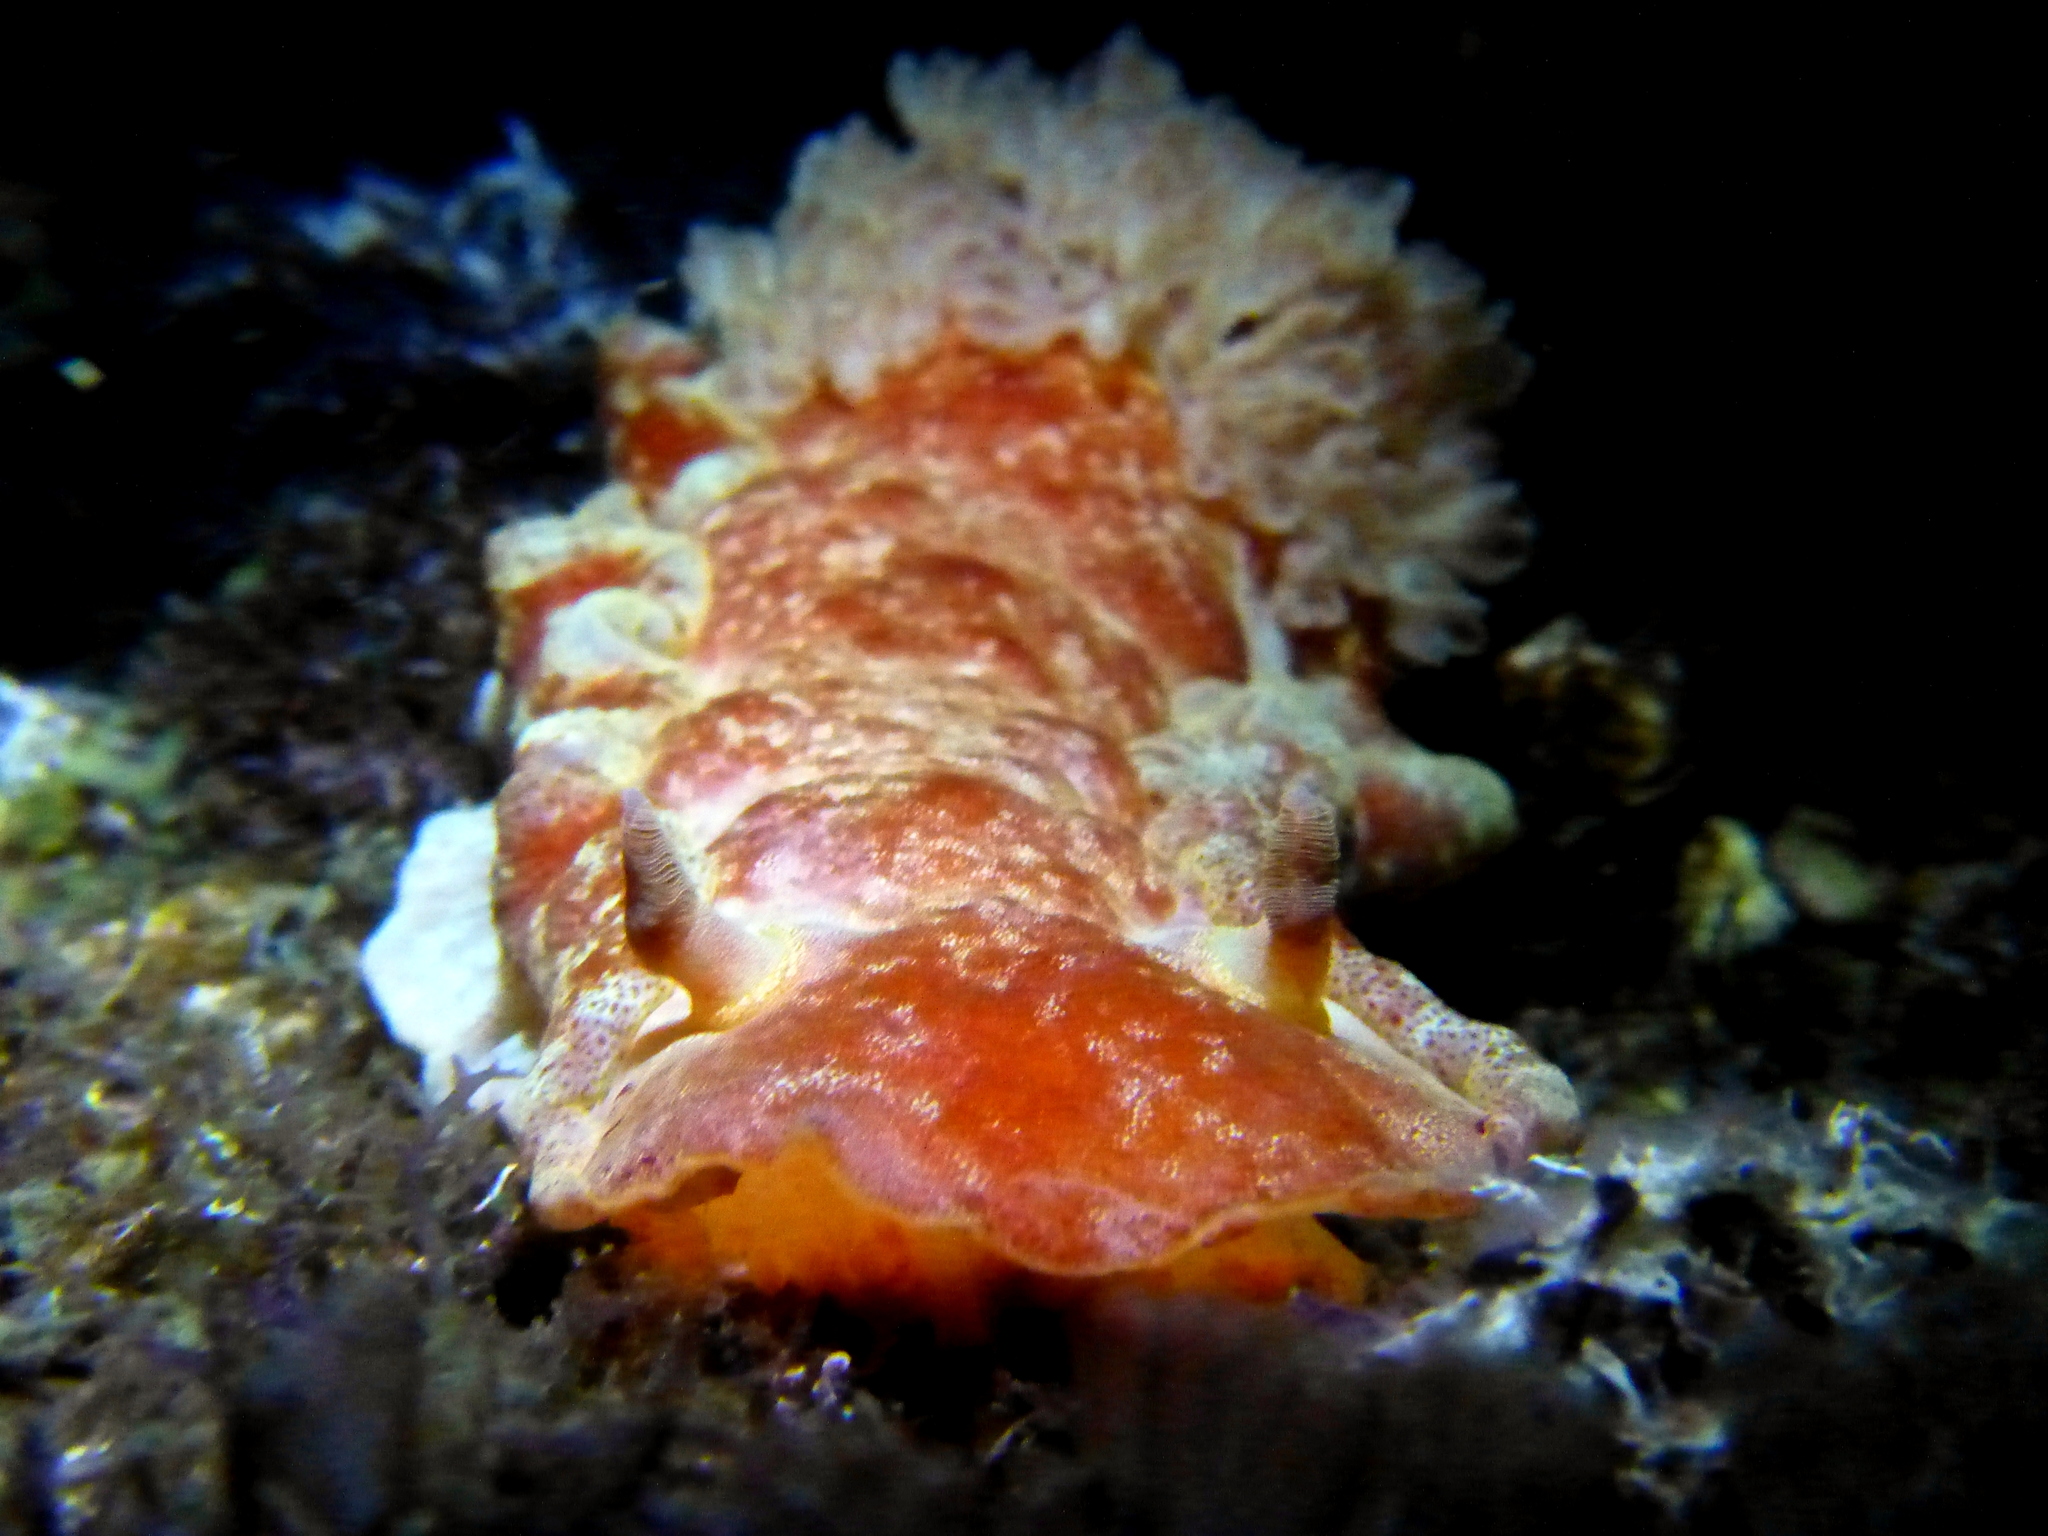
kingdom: Animalia
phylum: Mollusca
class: Gastropoda
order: Nudibranchia
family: Hexabranchidae
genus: Hexabranchus
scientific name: Hexabranchus sanguineus
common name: Spanish dancer
